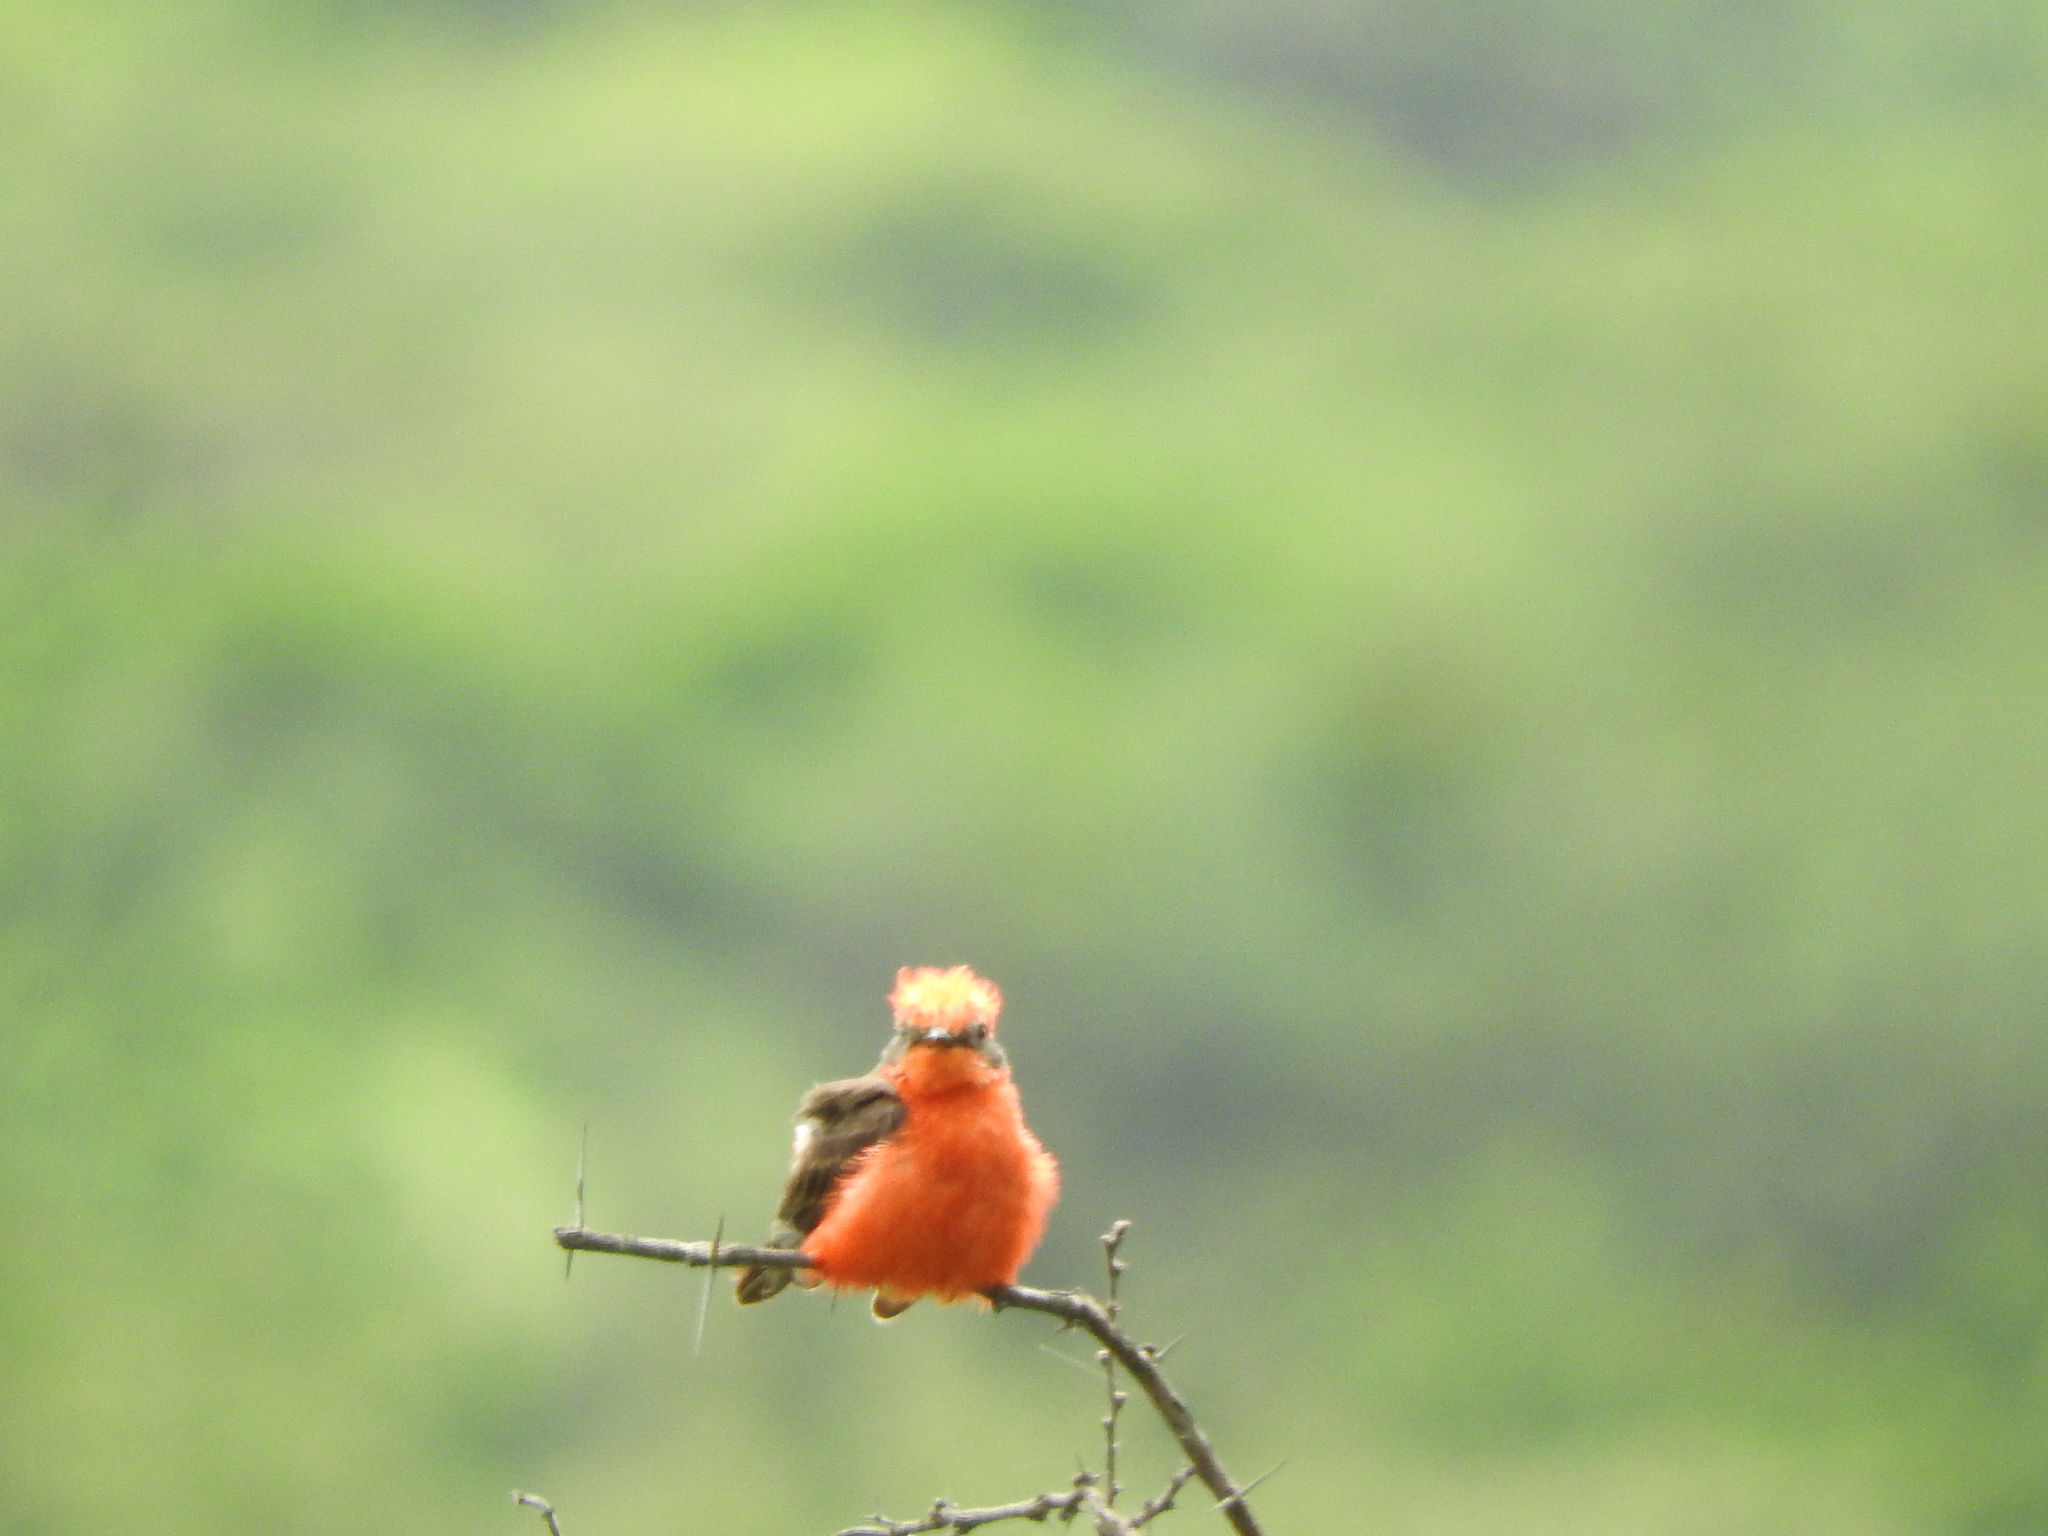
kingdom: Animalia
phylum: Chordata
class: Aves
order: Passeriformes
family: Tyrannidae
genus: Pyrocephalus
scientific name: Pyrocephalus rubinus
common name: Vermilion flycatcher
